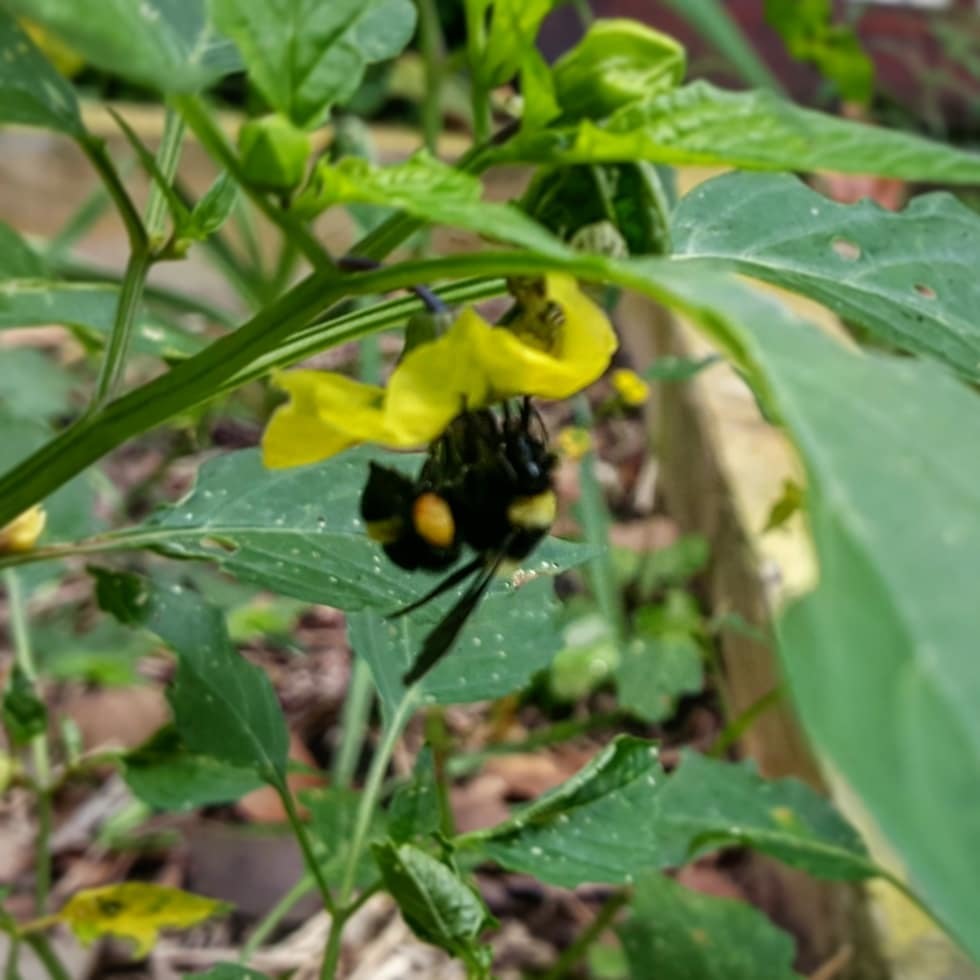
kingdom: Animalia
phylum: Arthropoda
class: Insecta
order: Hymenoptera
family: Apidae
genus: Bombus
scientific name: Bombus medius
